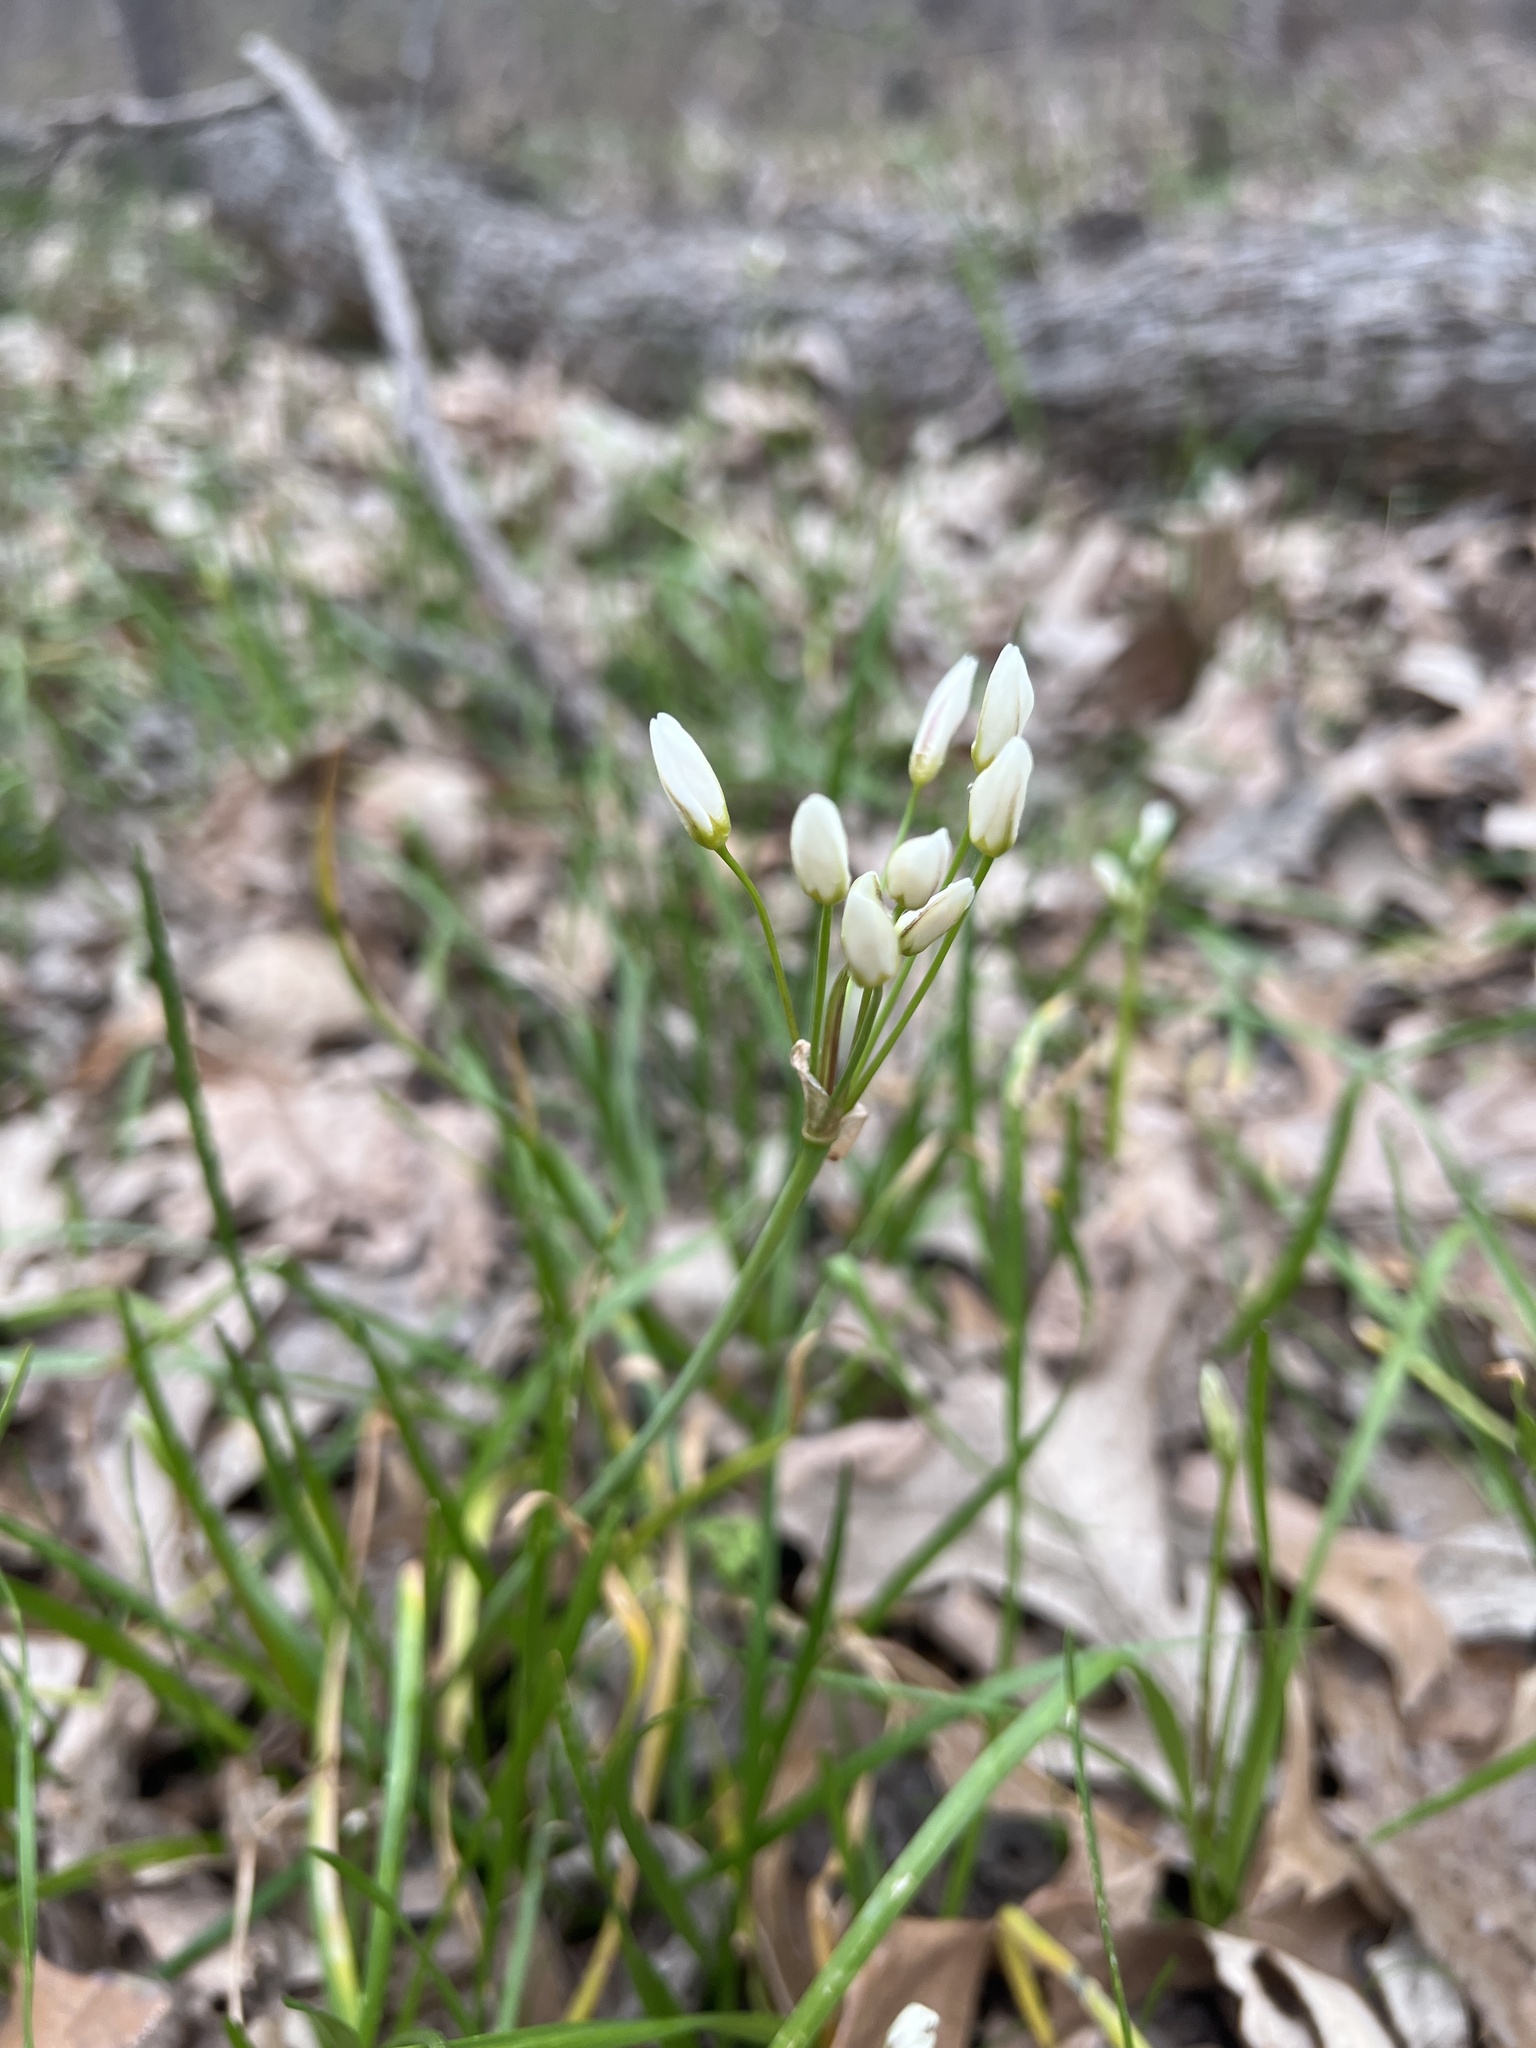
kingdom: Plantae
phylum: Tracheophyta
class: Liliopsida
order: Asparagales
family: Amaryllidaceae
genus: Nothoscordum
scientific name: Nothoscordum bivalve
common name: Crow-poison
